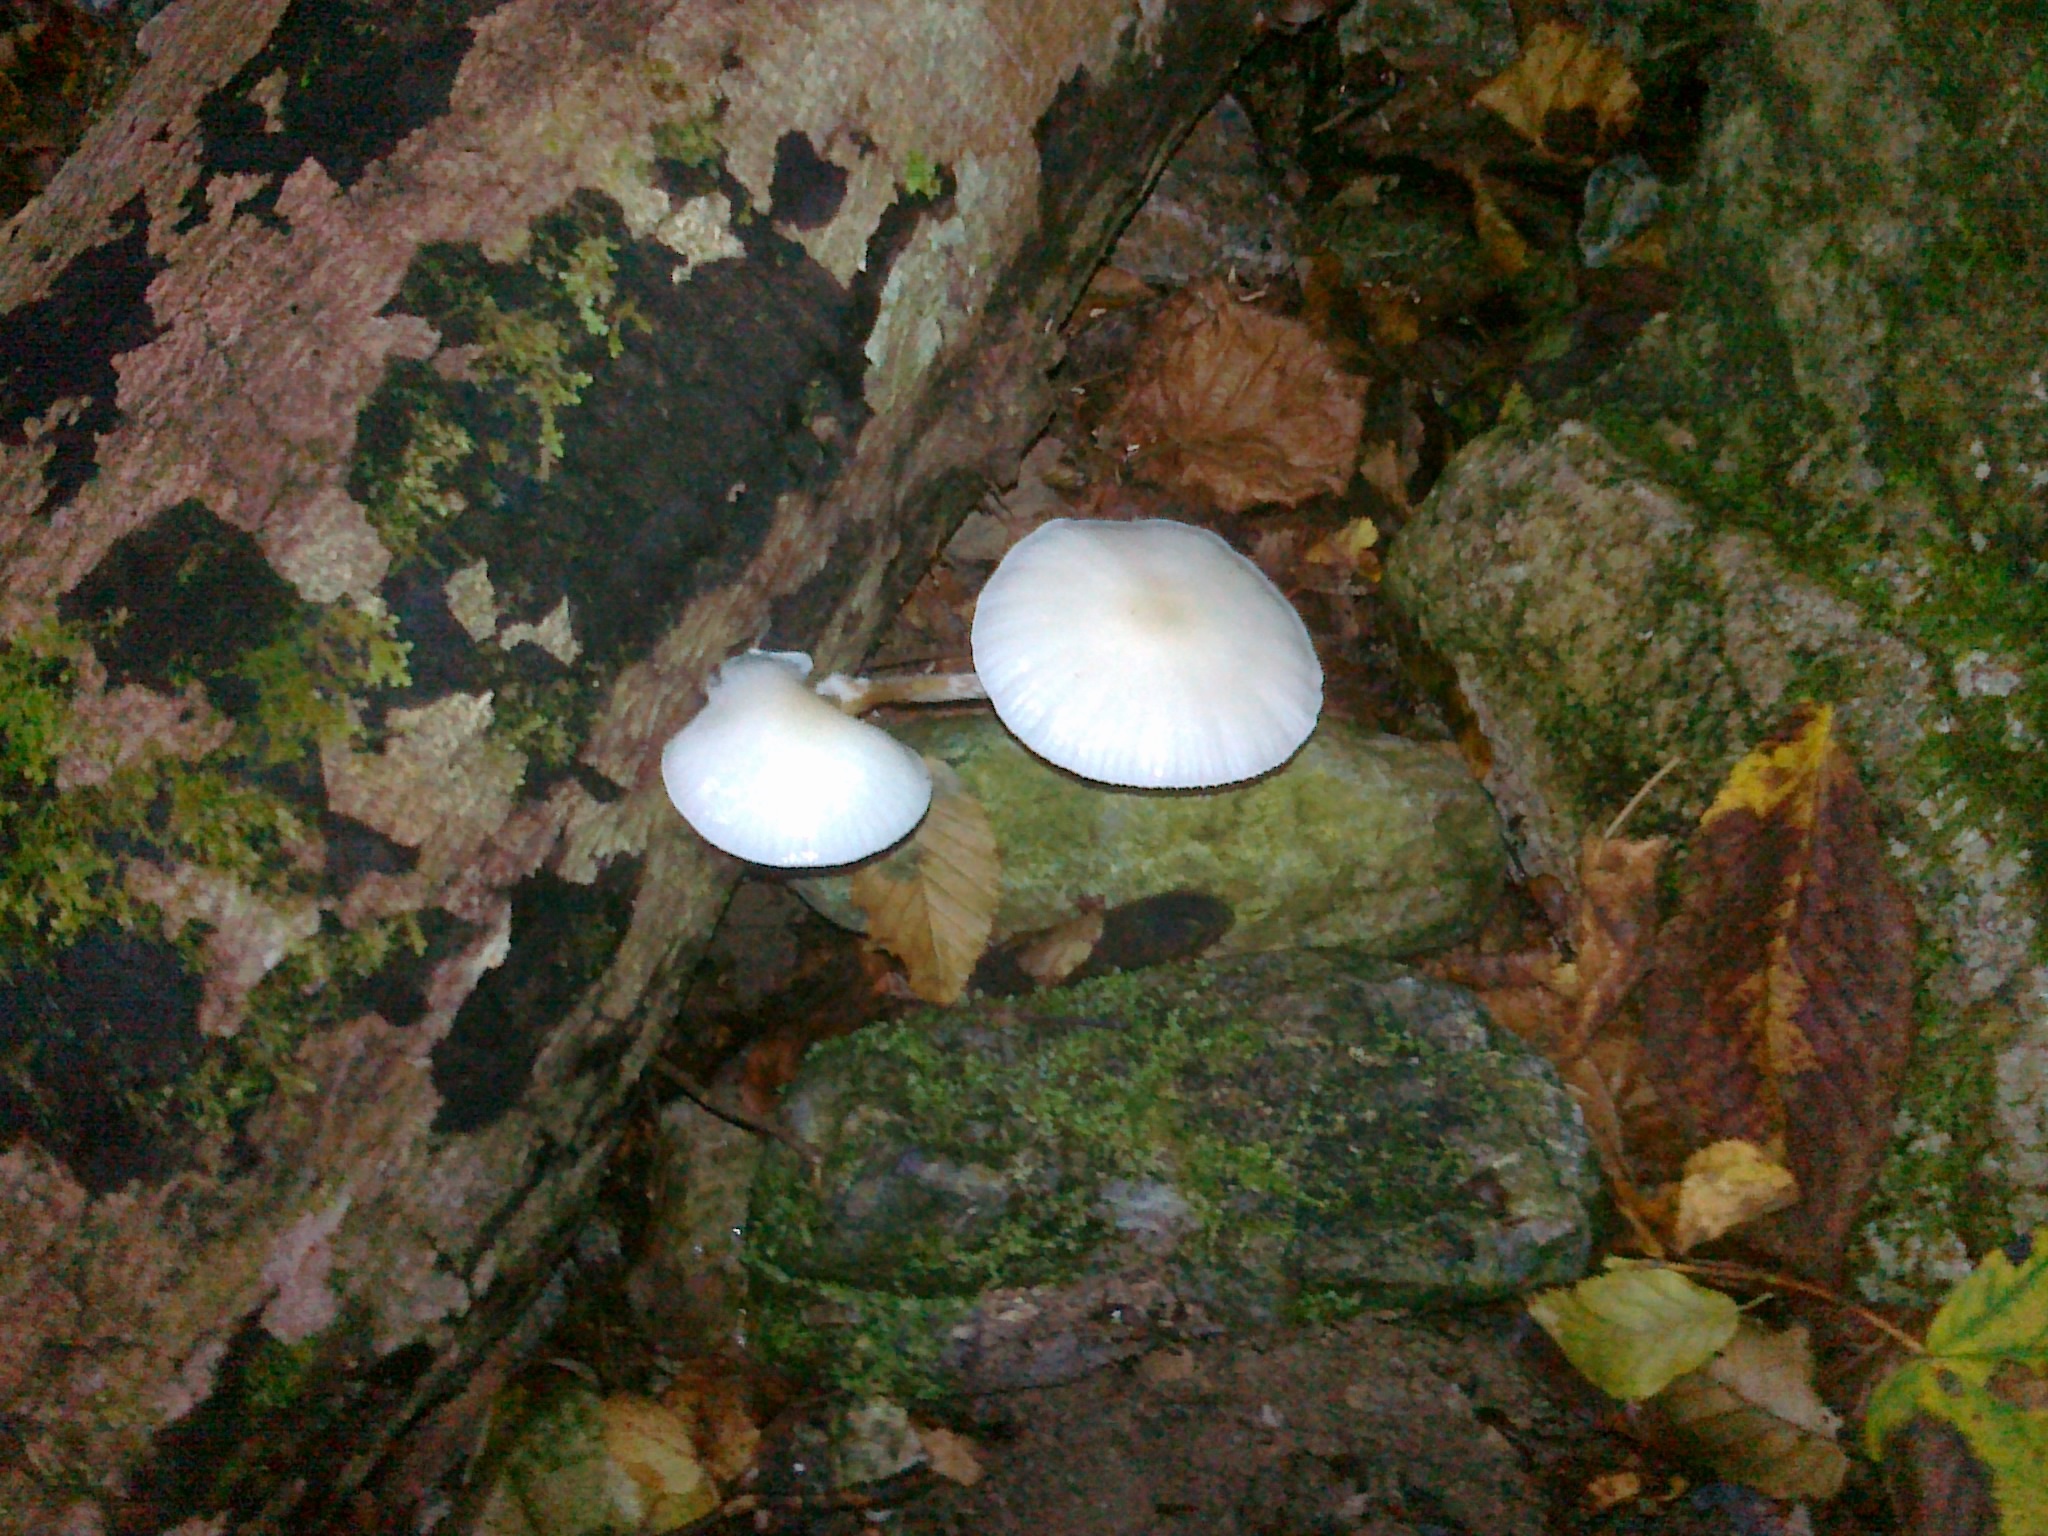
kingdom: Fungi
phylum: Basidiomycota
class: Agaricomycetes
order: Agaricales
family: Physalacriaceae
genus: Mucidula
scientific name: Mucidula mucida
